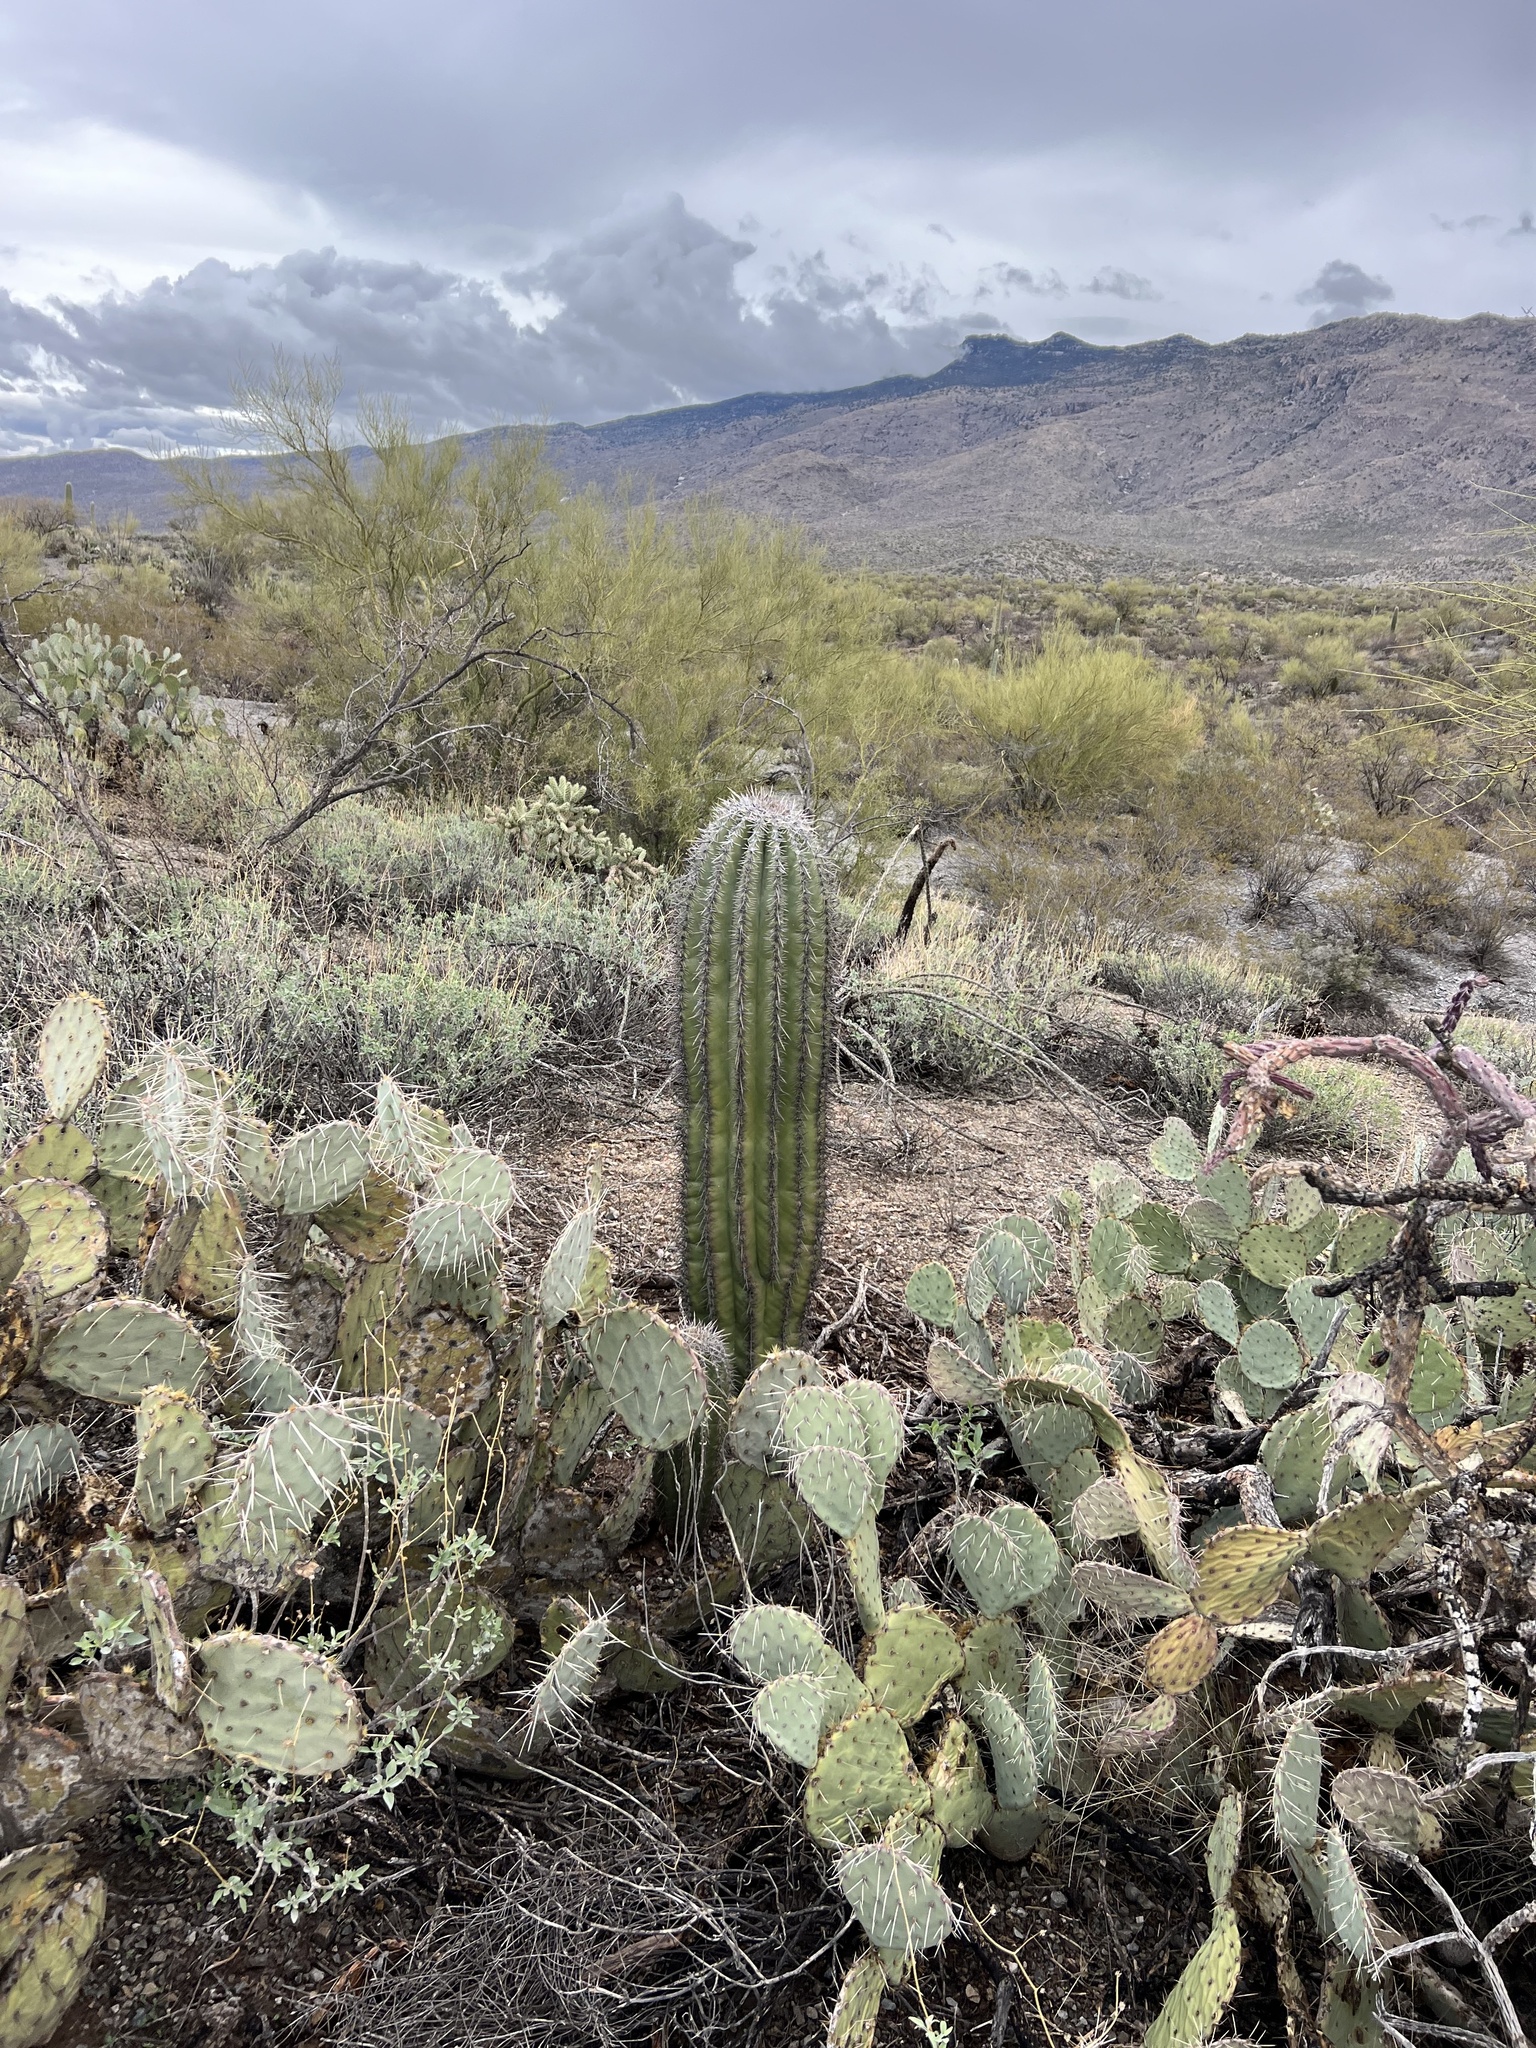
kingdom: Plantae
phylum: Tracheophyta
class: Magnoliopsida
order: Caryophyllales
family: Cactaceae
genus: Carnegiea
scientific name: Carnegiea gigantea
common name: Saguaro
